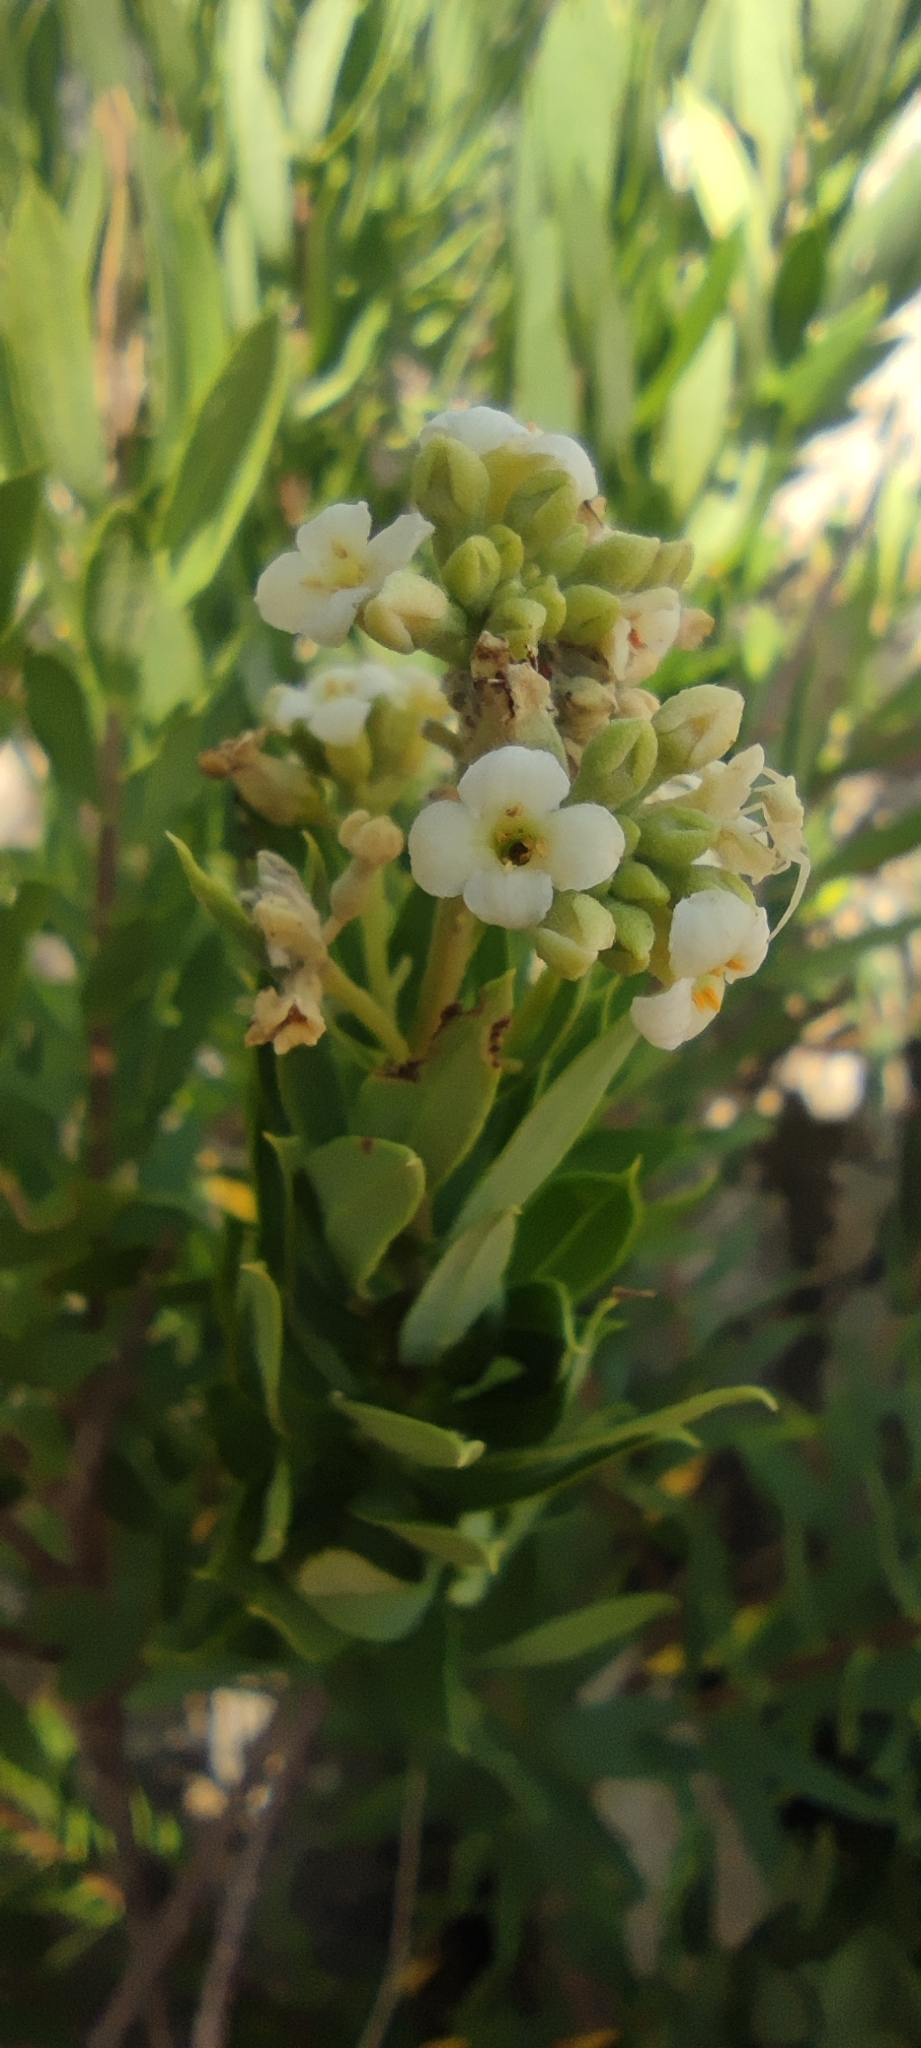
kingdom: Plantae
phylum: Tracheophyta
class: Magnoliopsida
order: Malvales
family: Thymelaeaceae
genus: Daphne
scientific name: Daphne gnidium
